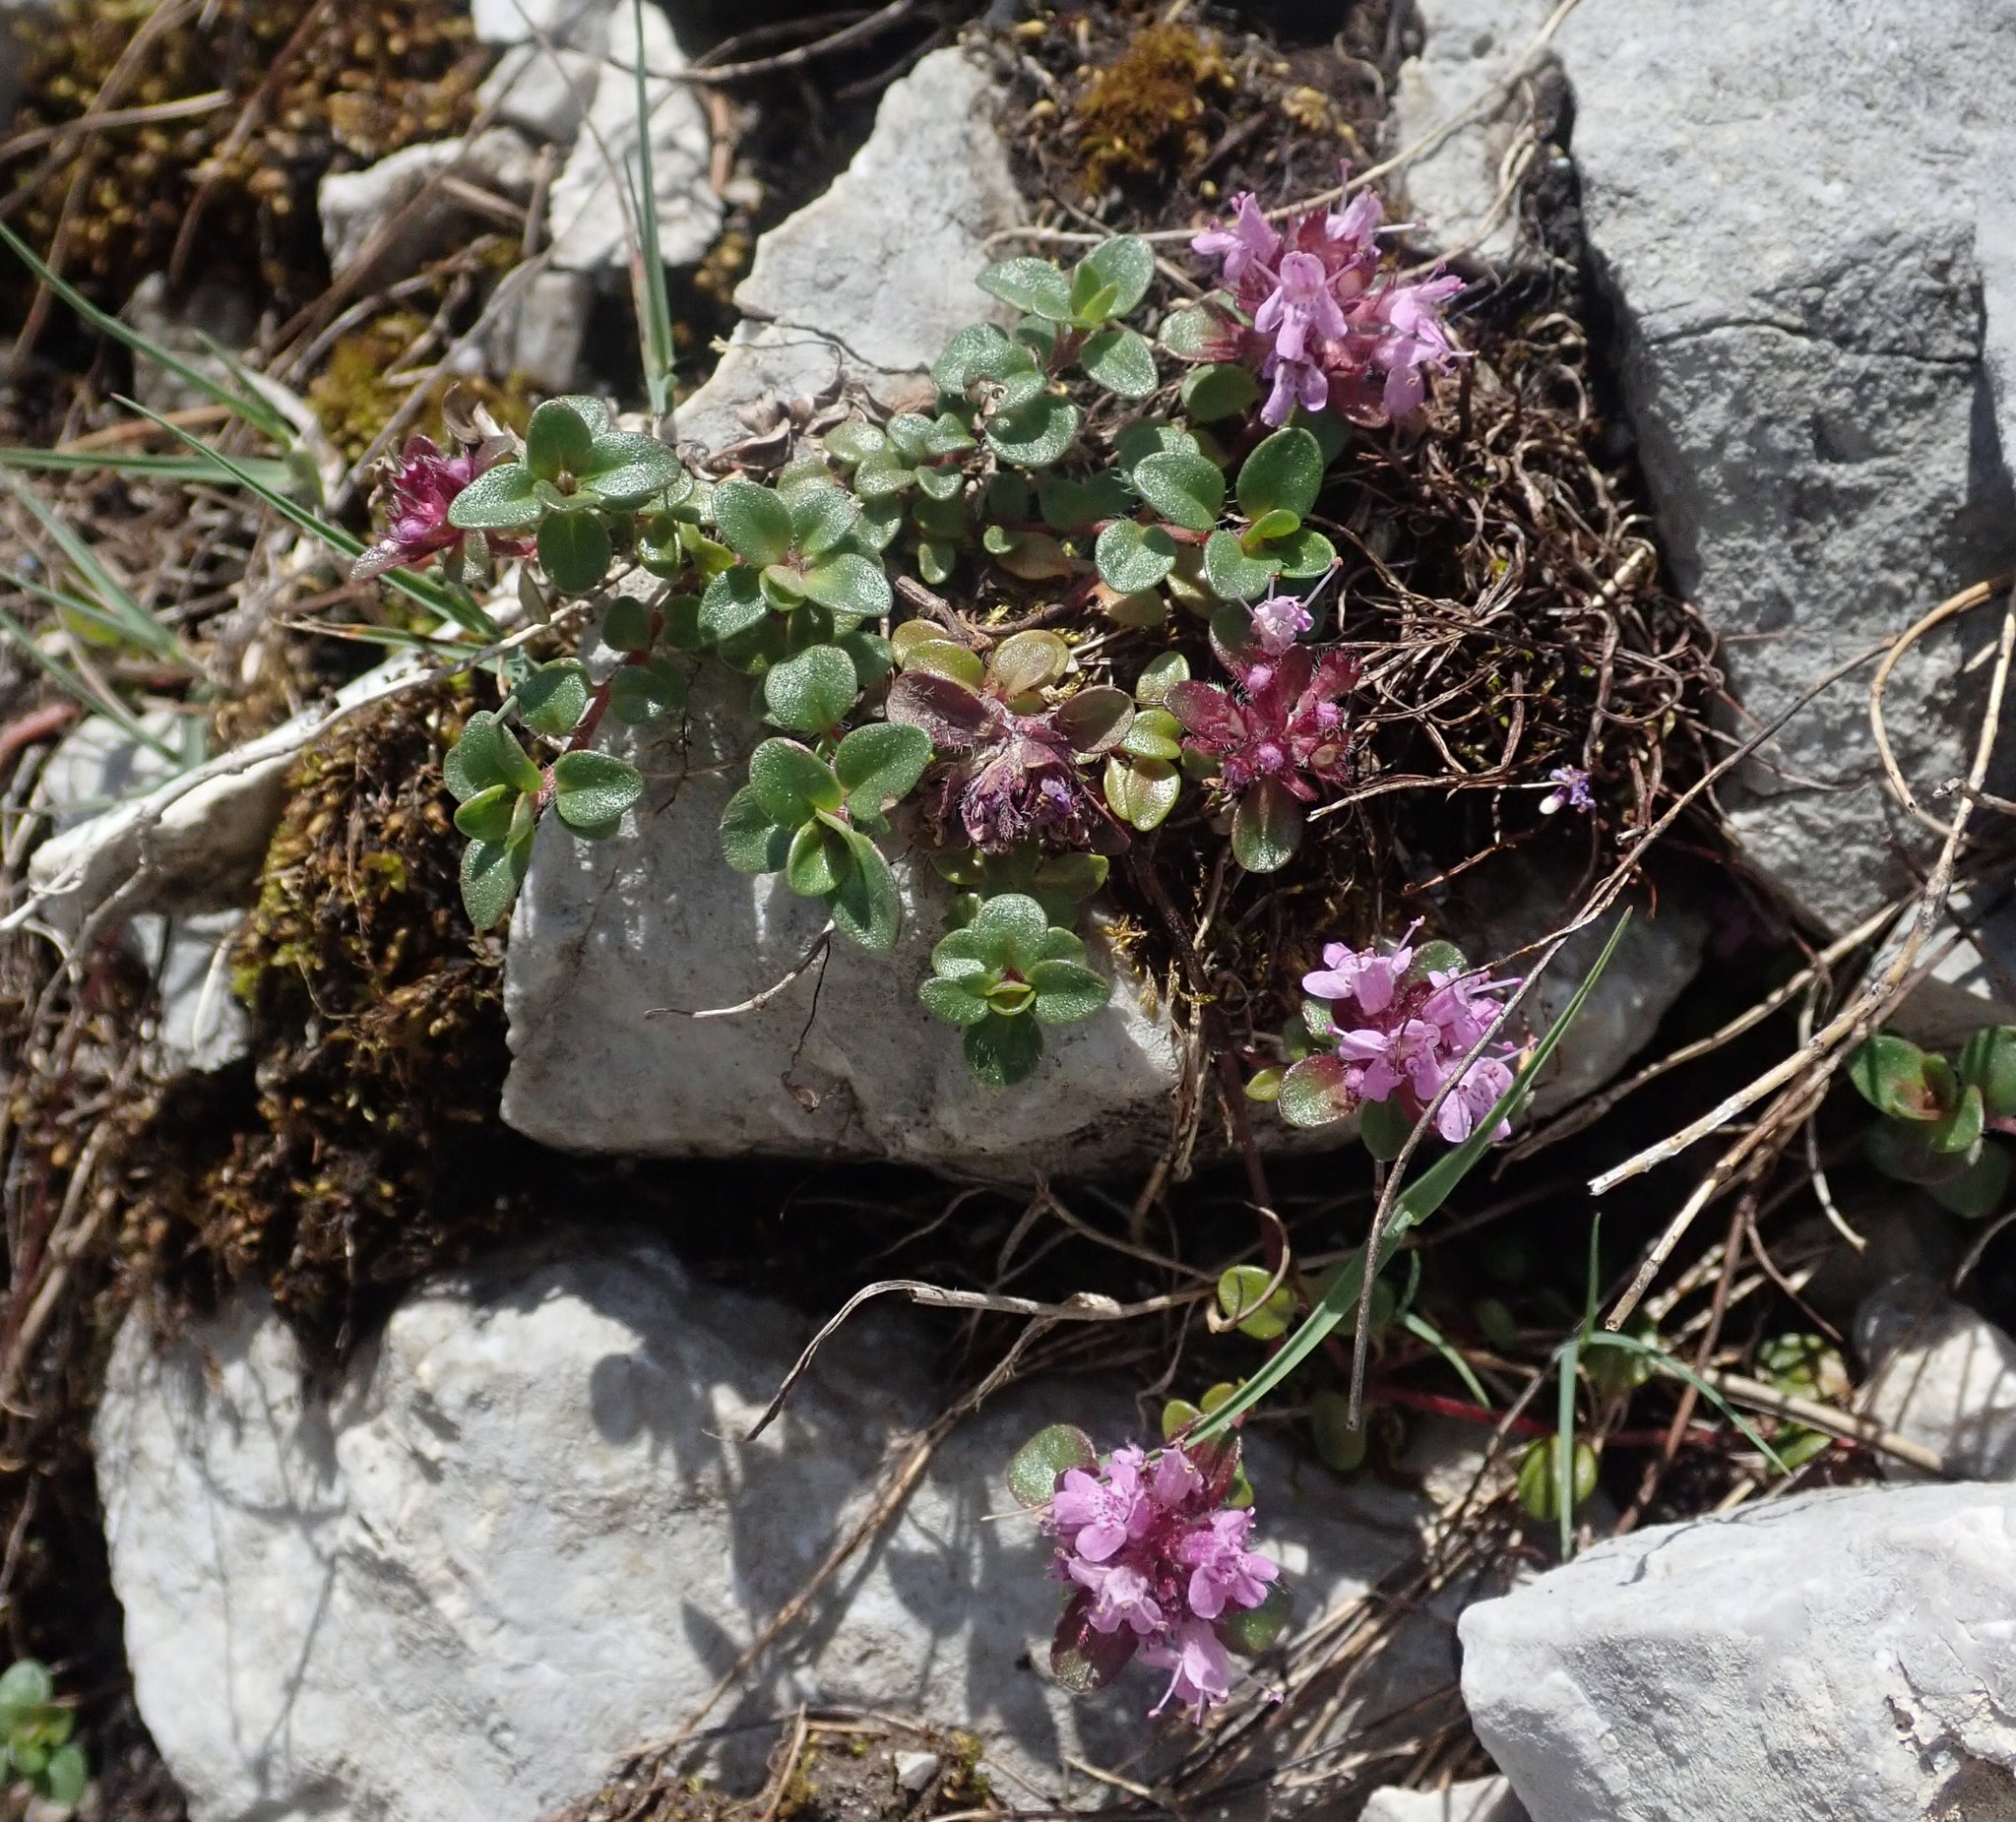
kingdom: Plantae
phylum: Tracheophyta
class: Magnoliopsida
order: Lamiales
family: Lamiaceae
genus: Thymus
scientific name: Thymus praecox
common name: Wild thyme
